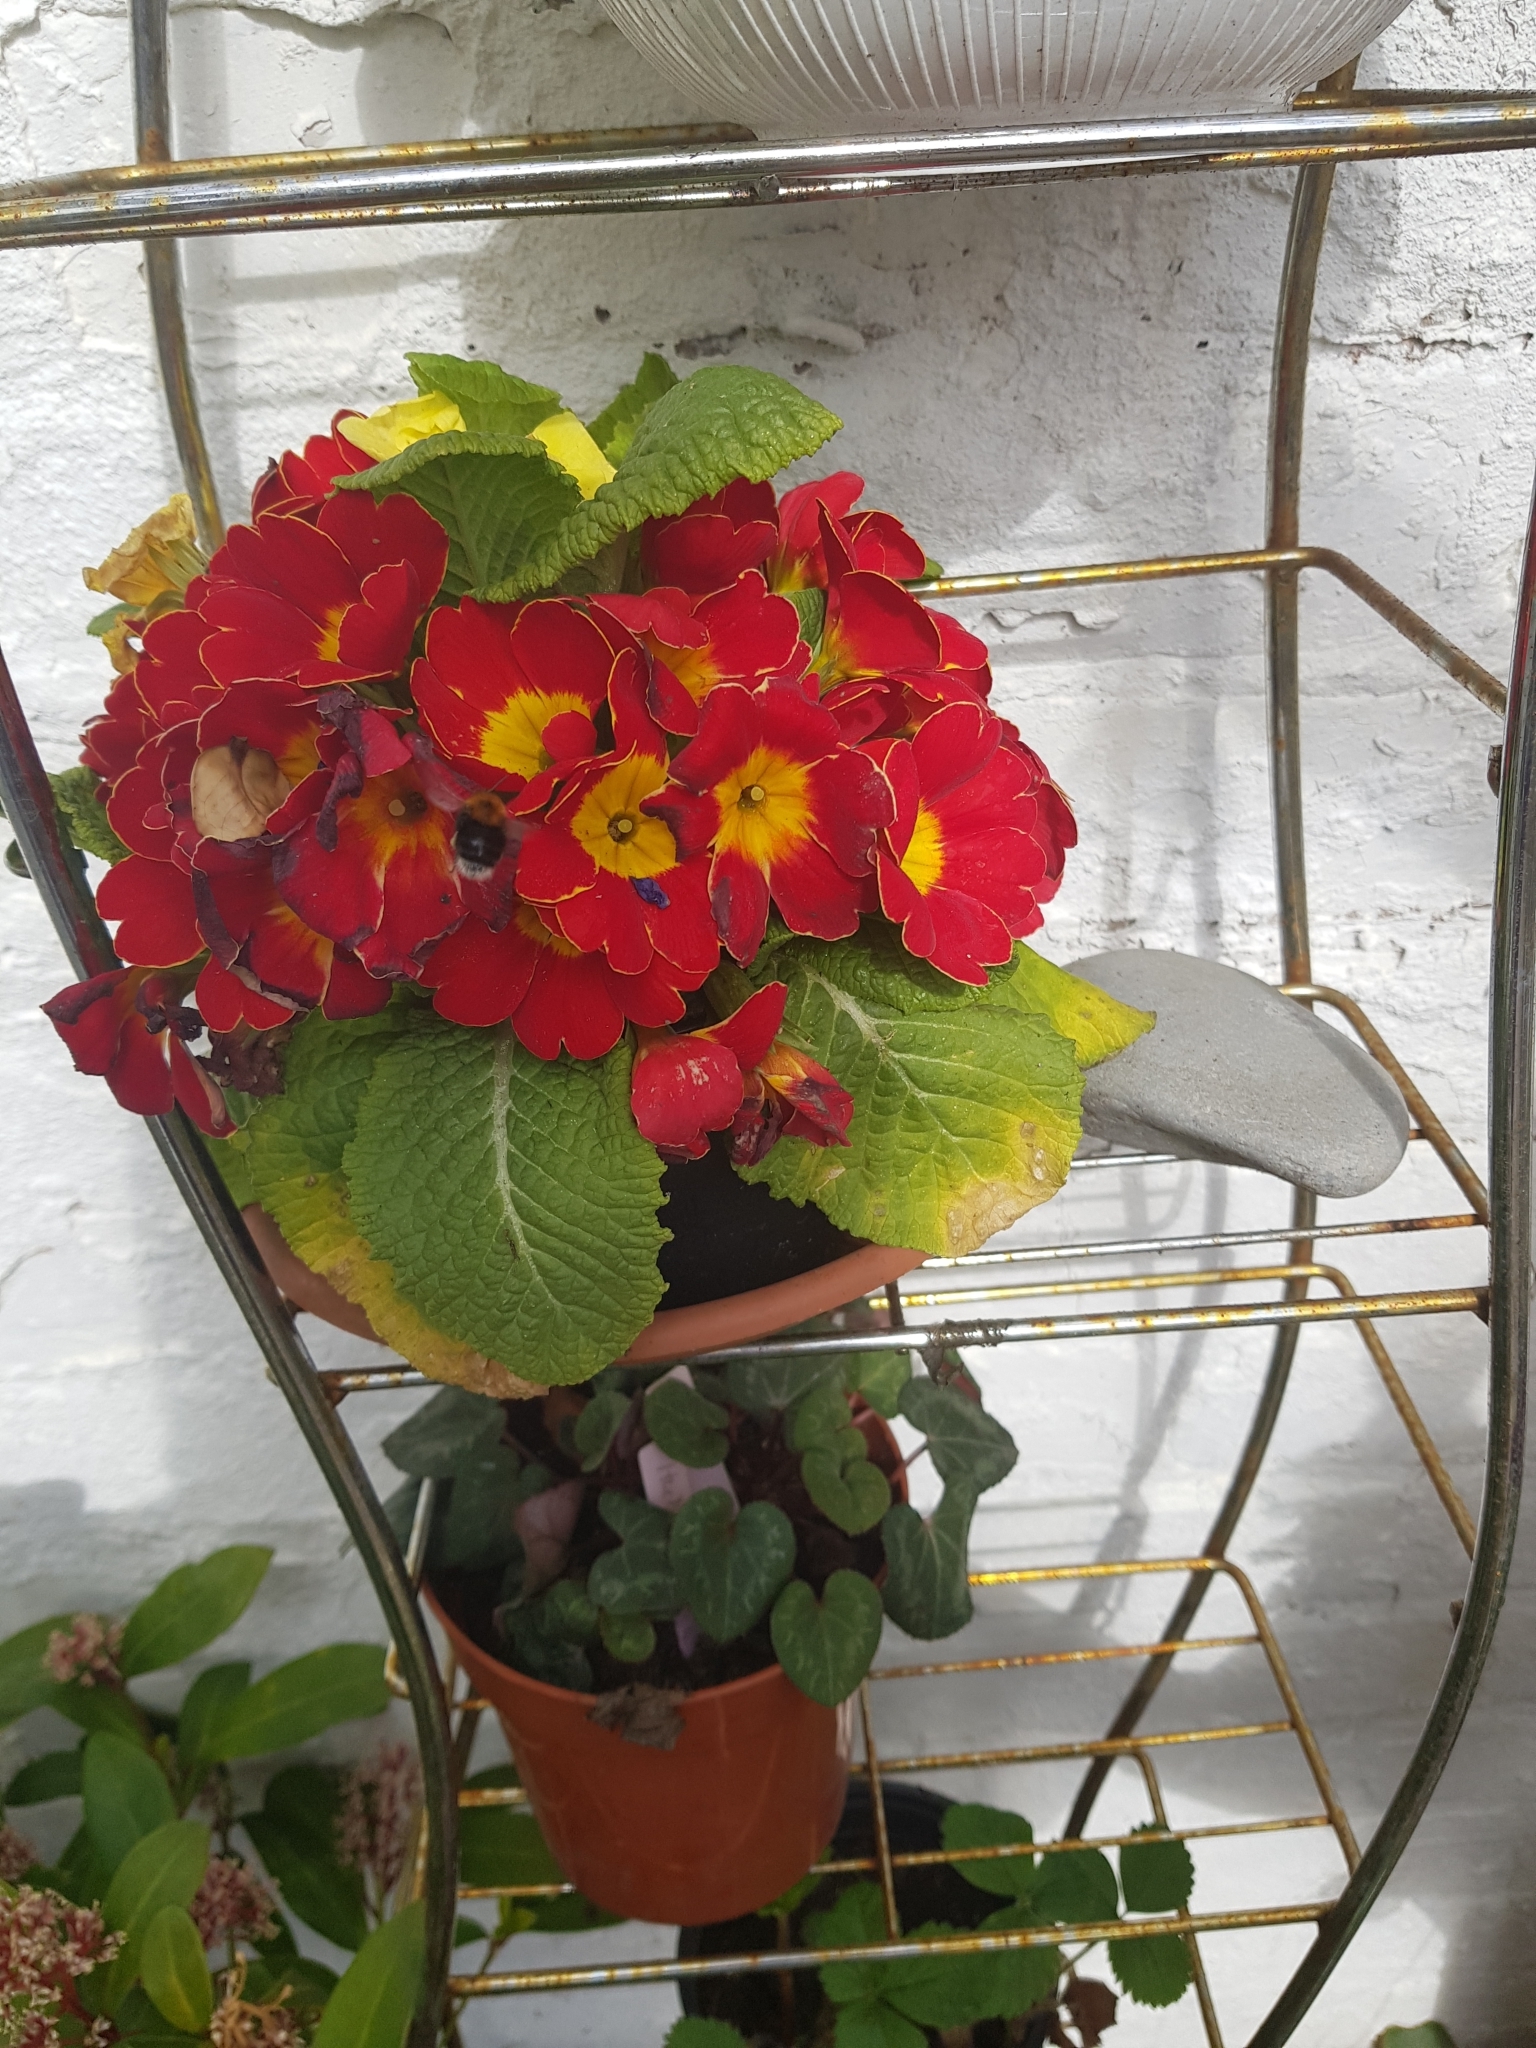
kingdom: Animalia
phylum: Arthropoda
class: Insecta
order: Hymenoptera
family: Apidae
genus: Bombus
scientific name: Bombus hypnorum
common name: New garden bumblebee
